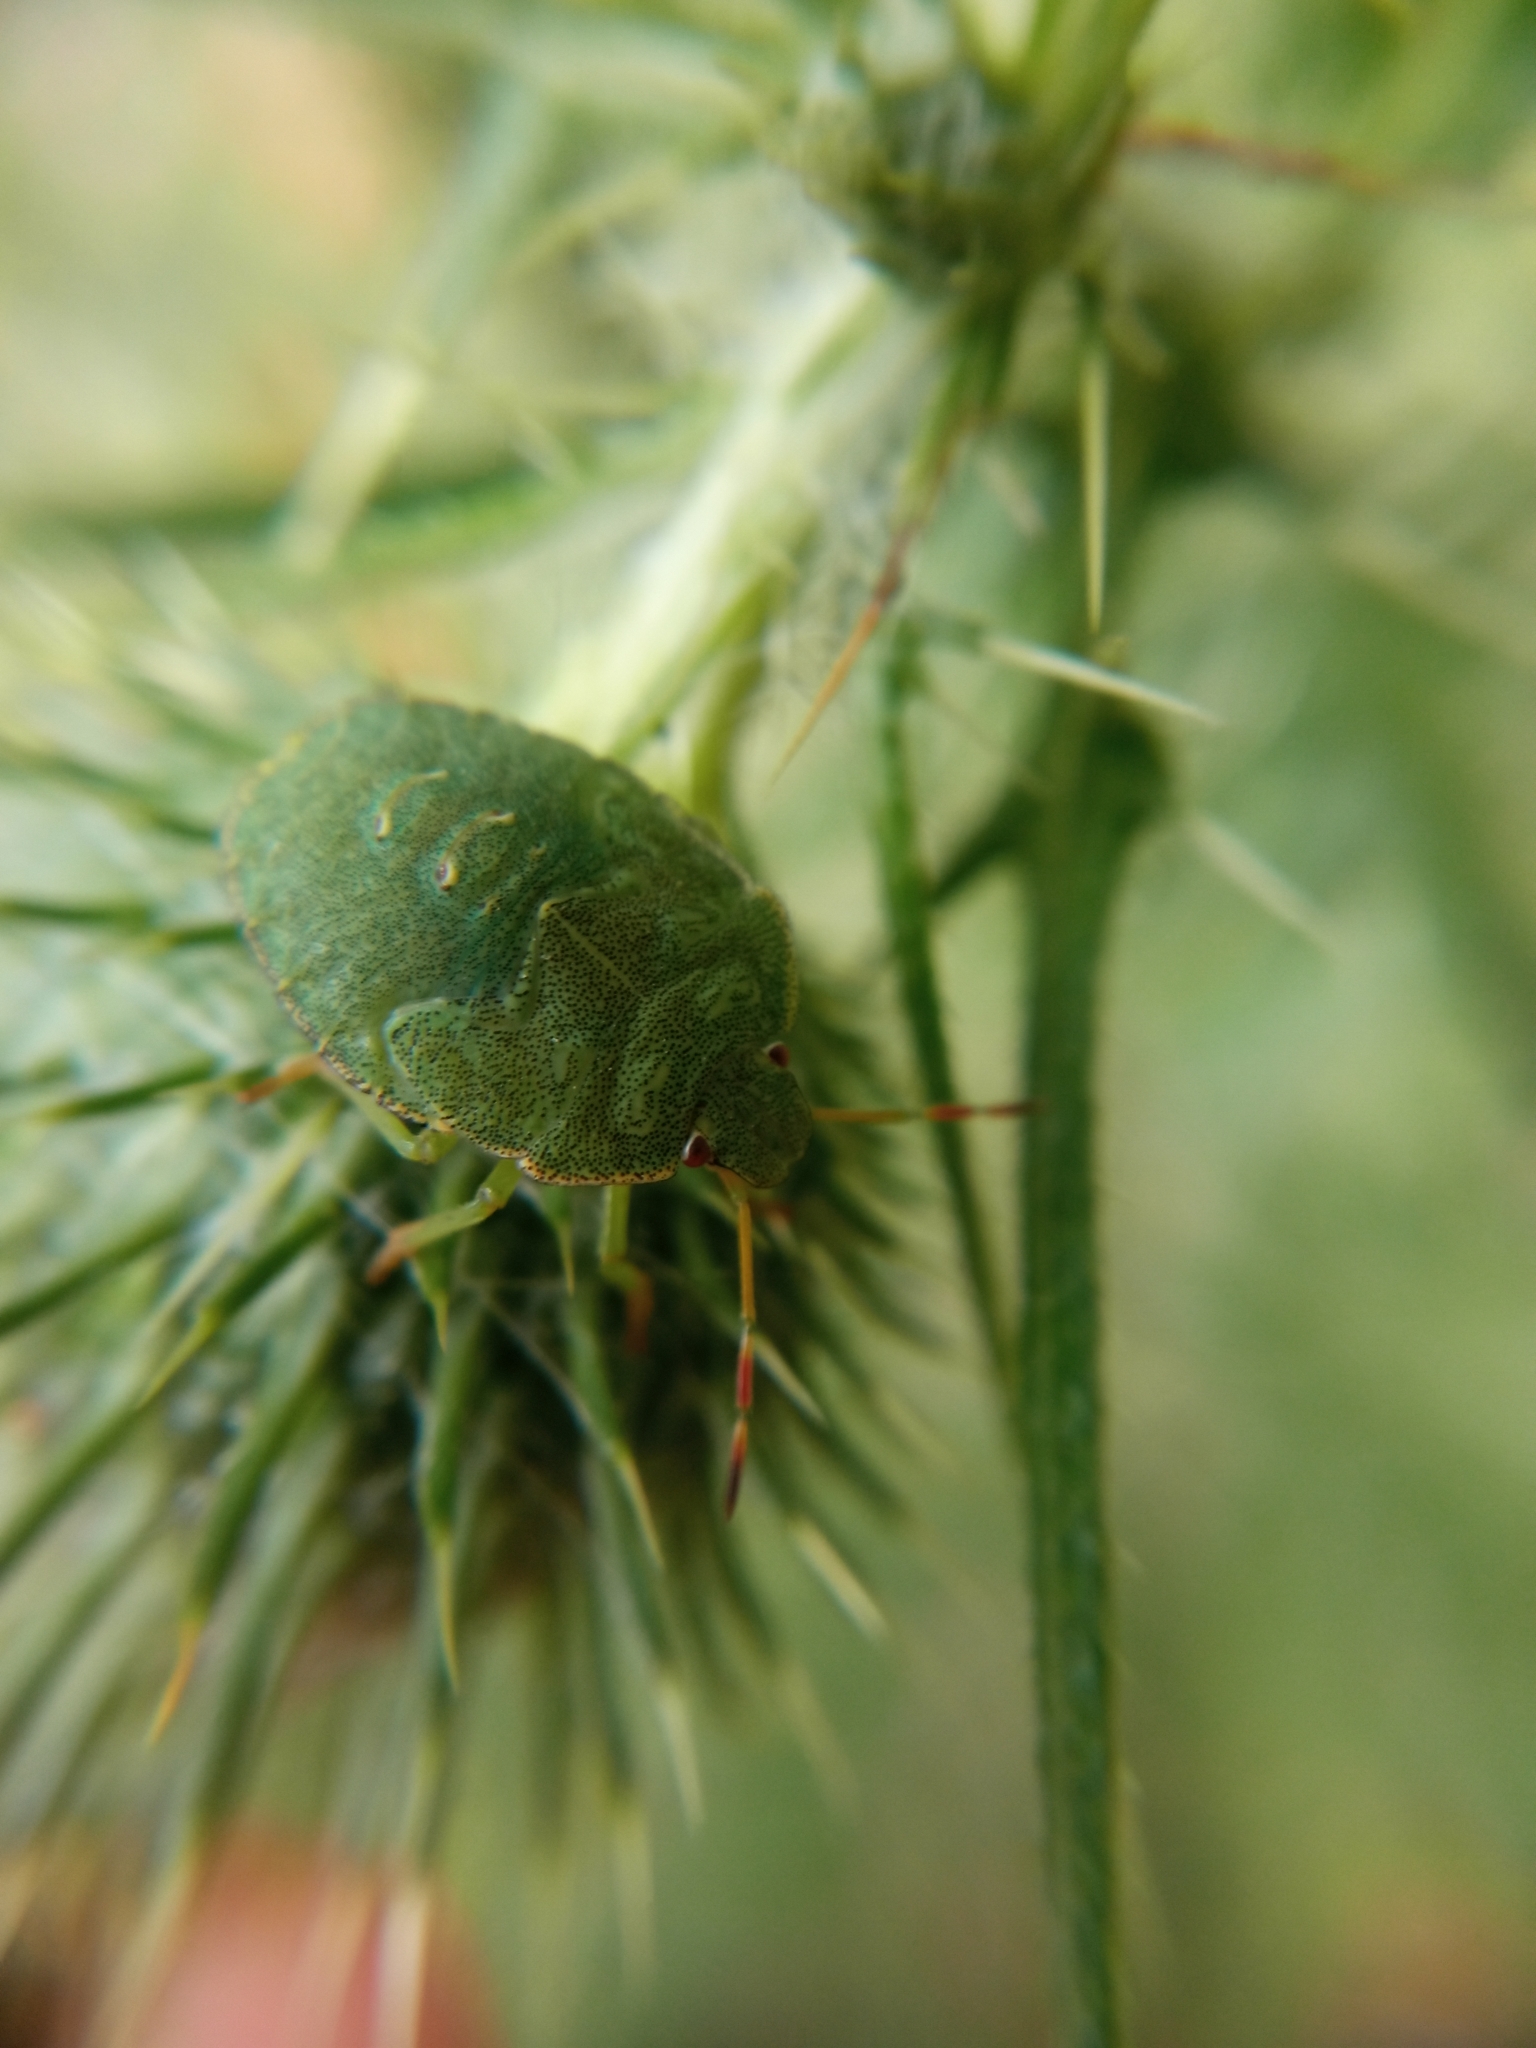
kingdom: Animalia
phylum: Arthropoda
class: Insecta
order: Hemiptera
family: Pentatomidae
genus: Palomena
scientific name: Palomena prasina
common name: Green shieldbug
